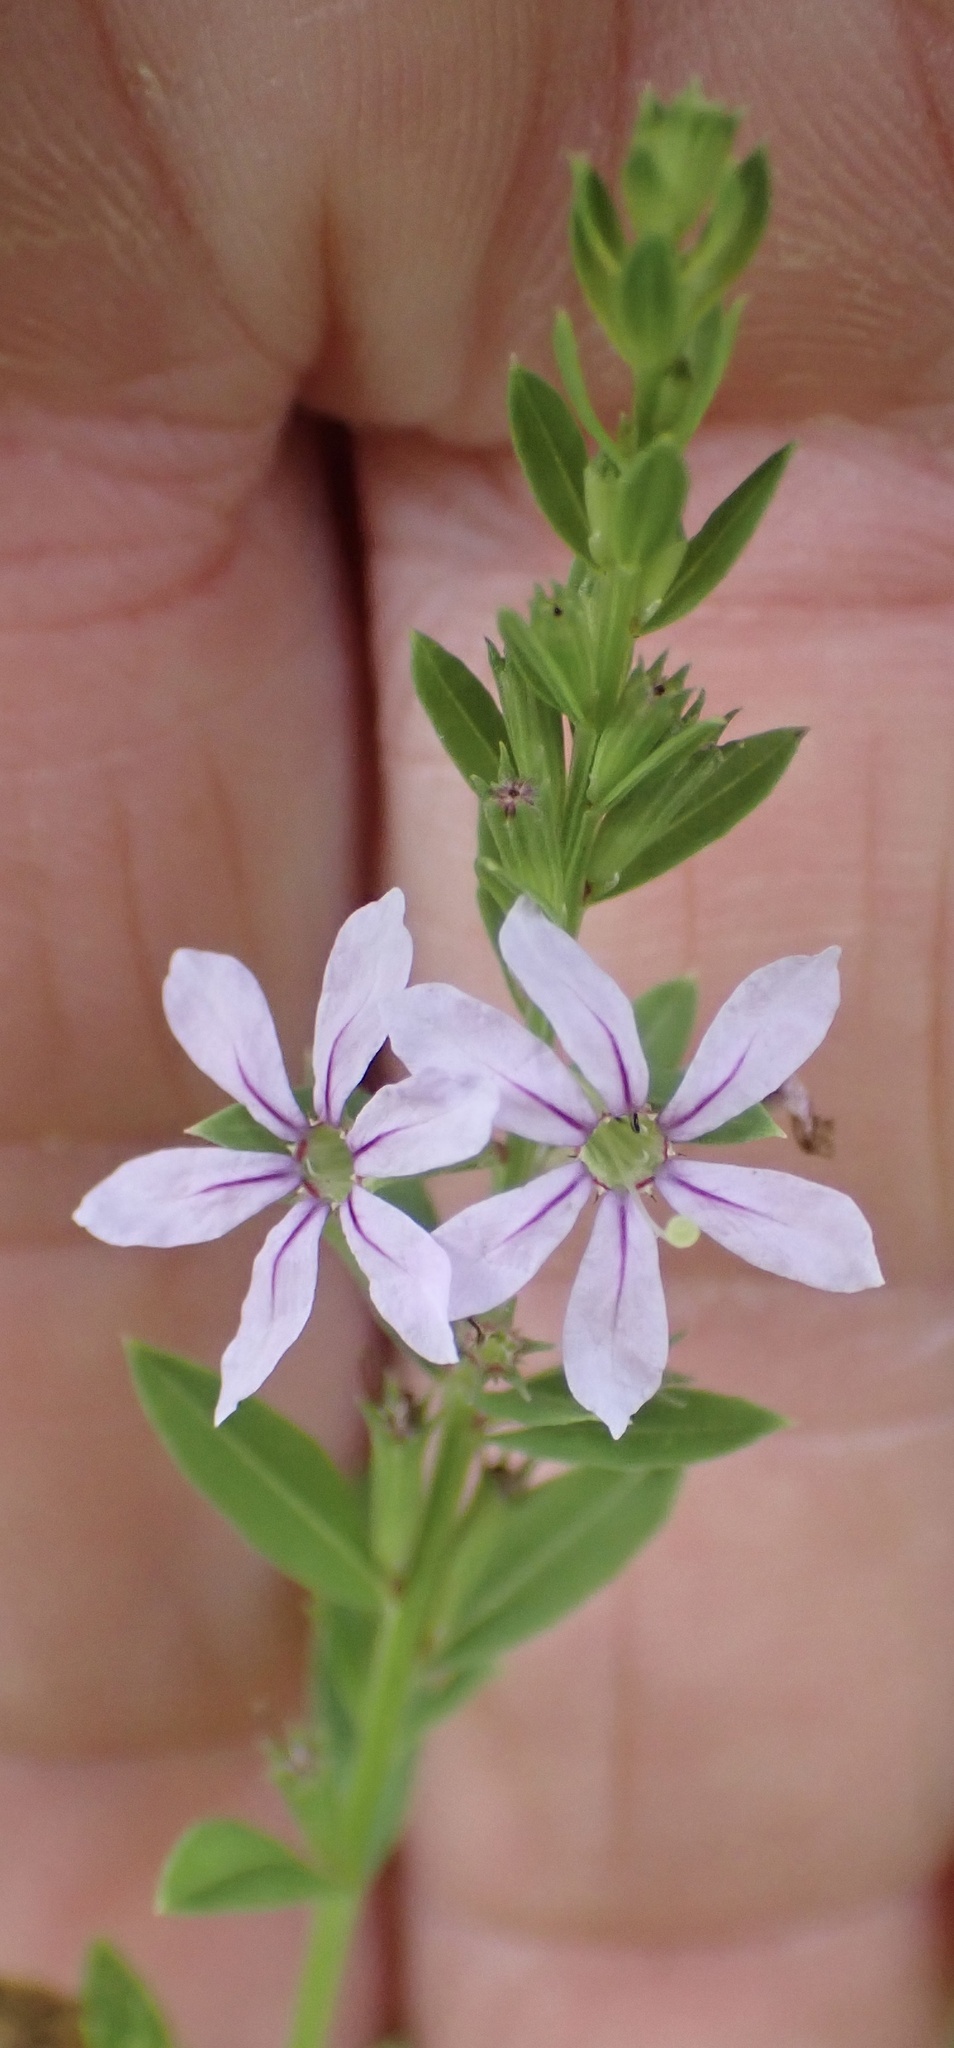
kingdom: Plantae
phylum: Tracheophyta
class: Magnoliopsida
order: Myrtales
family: Lythraceae
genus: Lythrum
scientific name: Lythrum alatum
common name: Winged loosestrife
